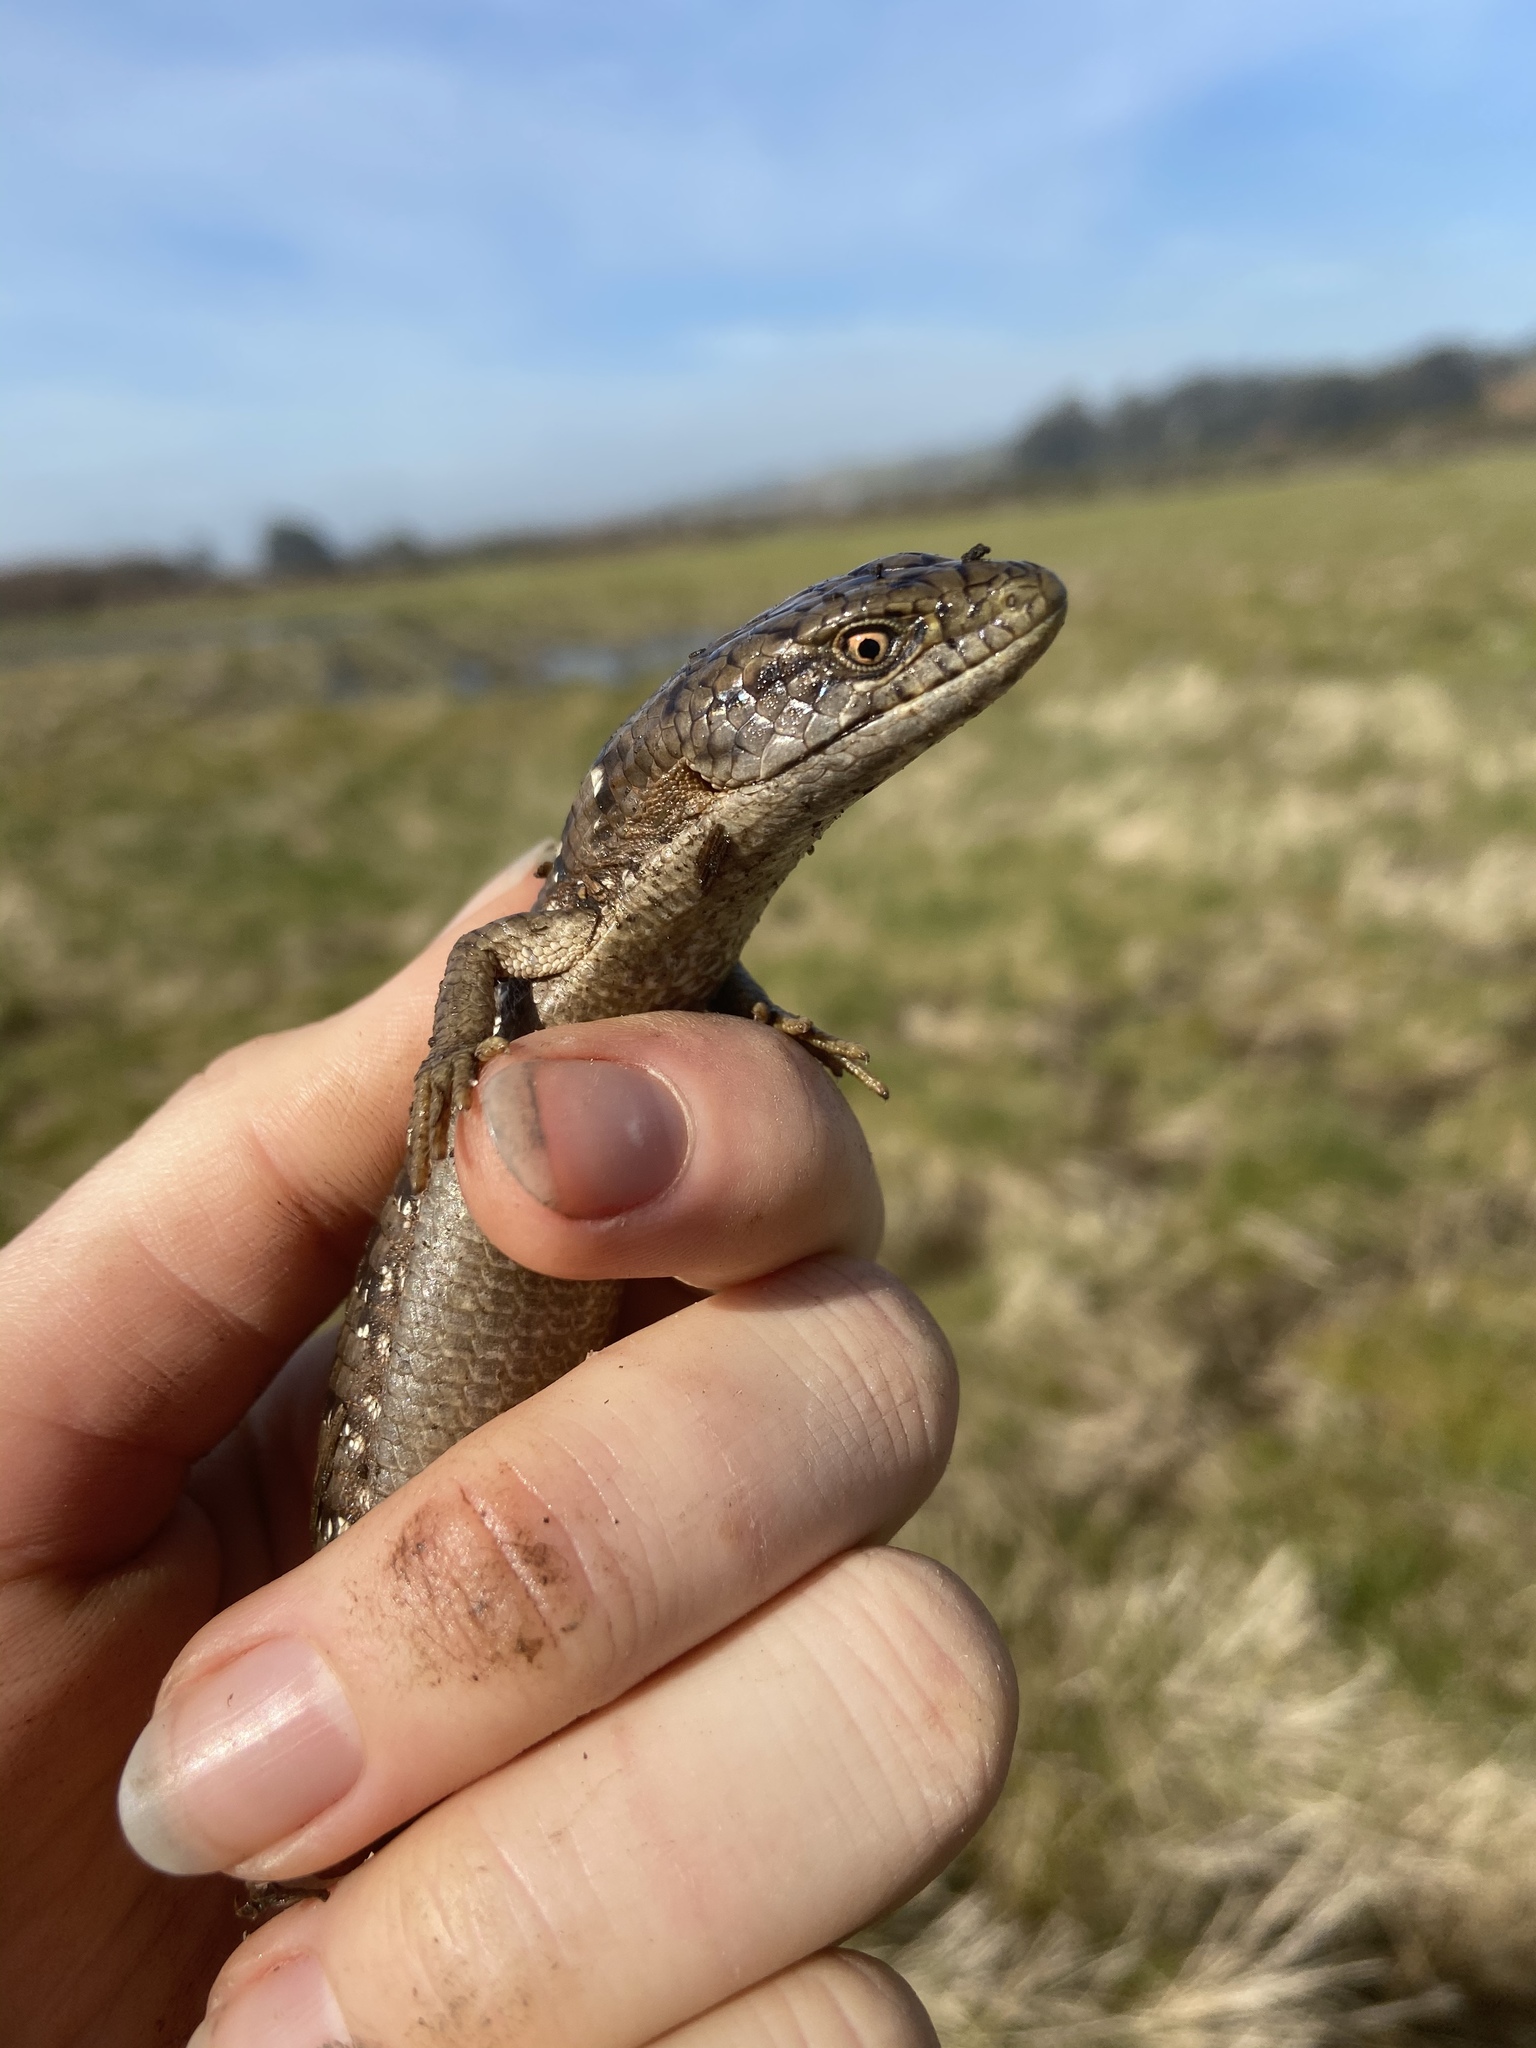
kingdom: Animalia
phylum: Chordata
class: Squamata
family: Anguidae
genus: Elgaria
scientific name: Elgaria multicarinata
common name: Southern alligator lizard
